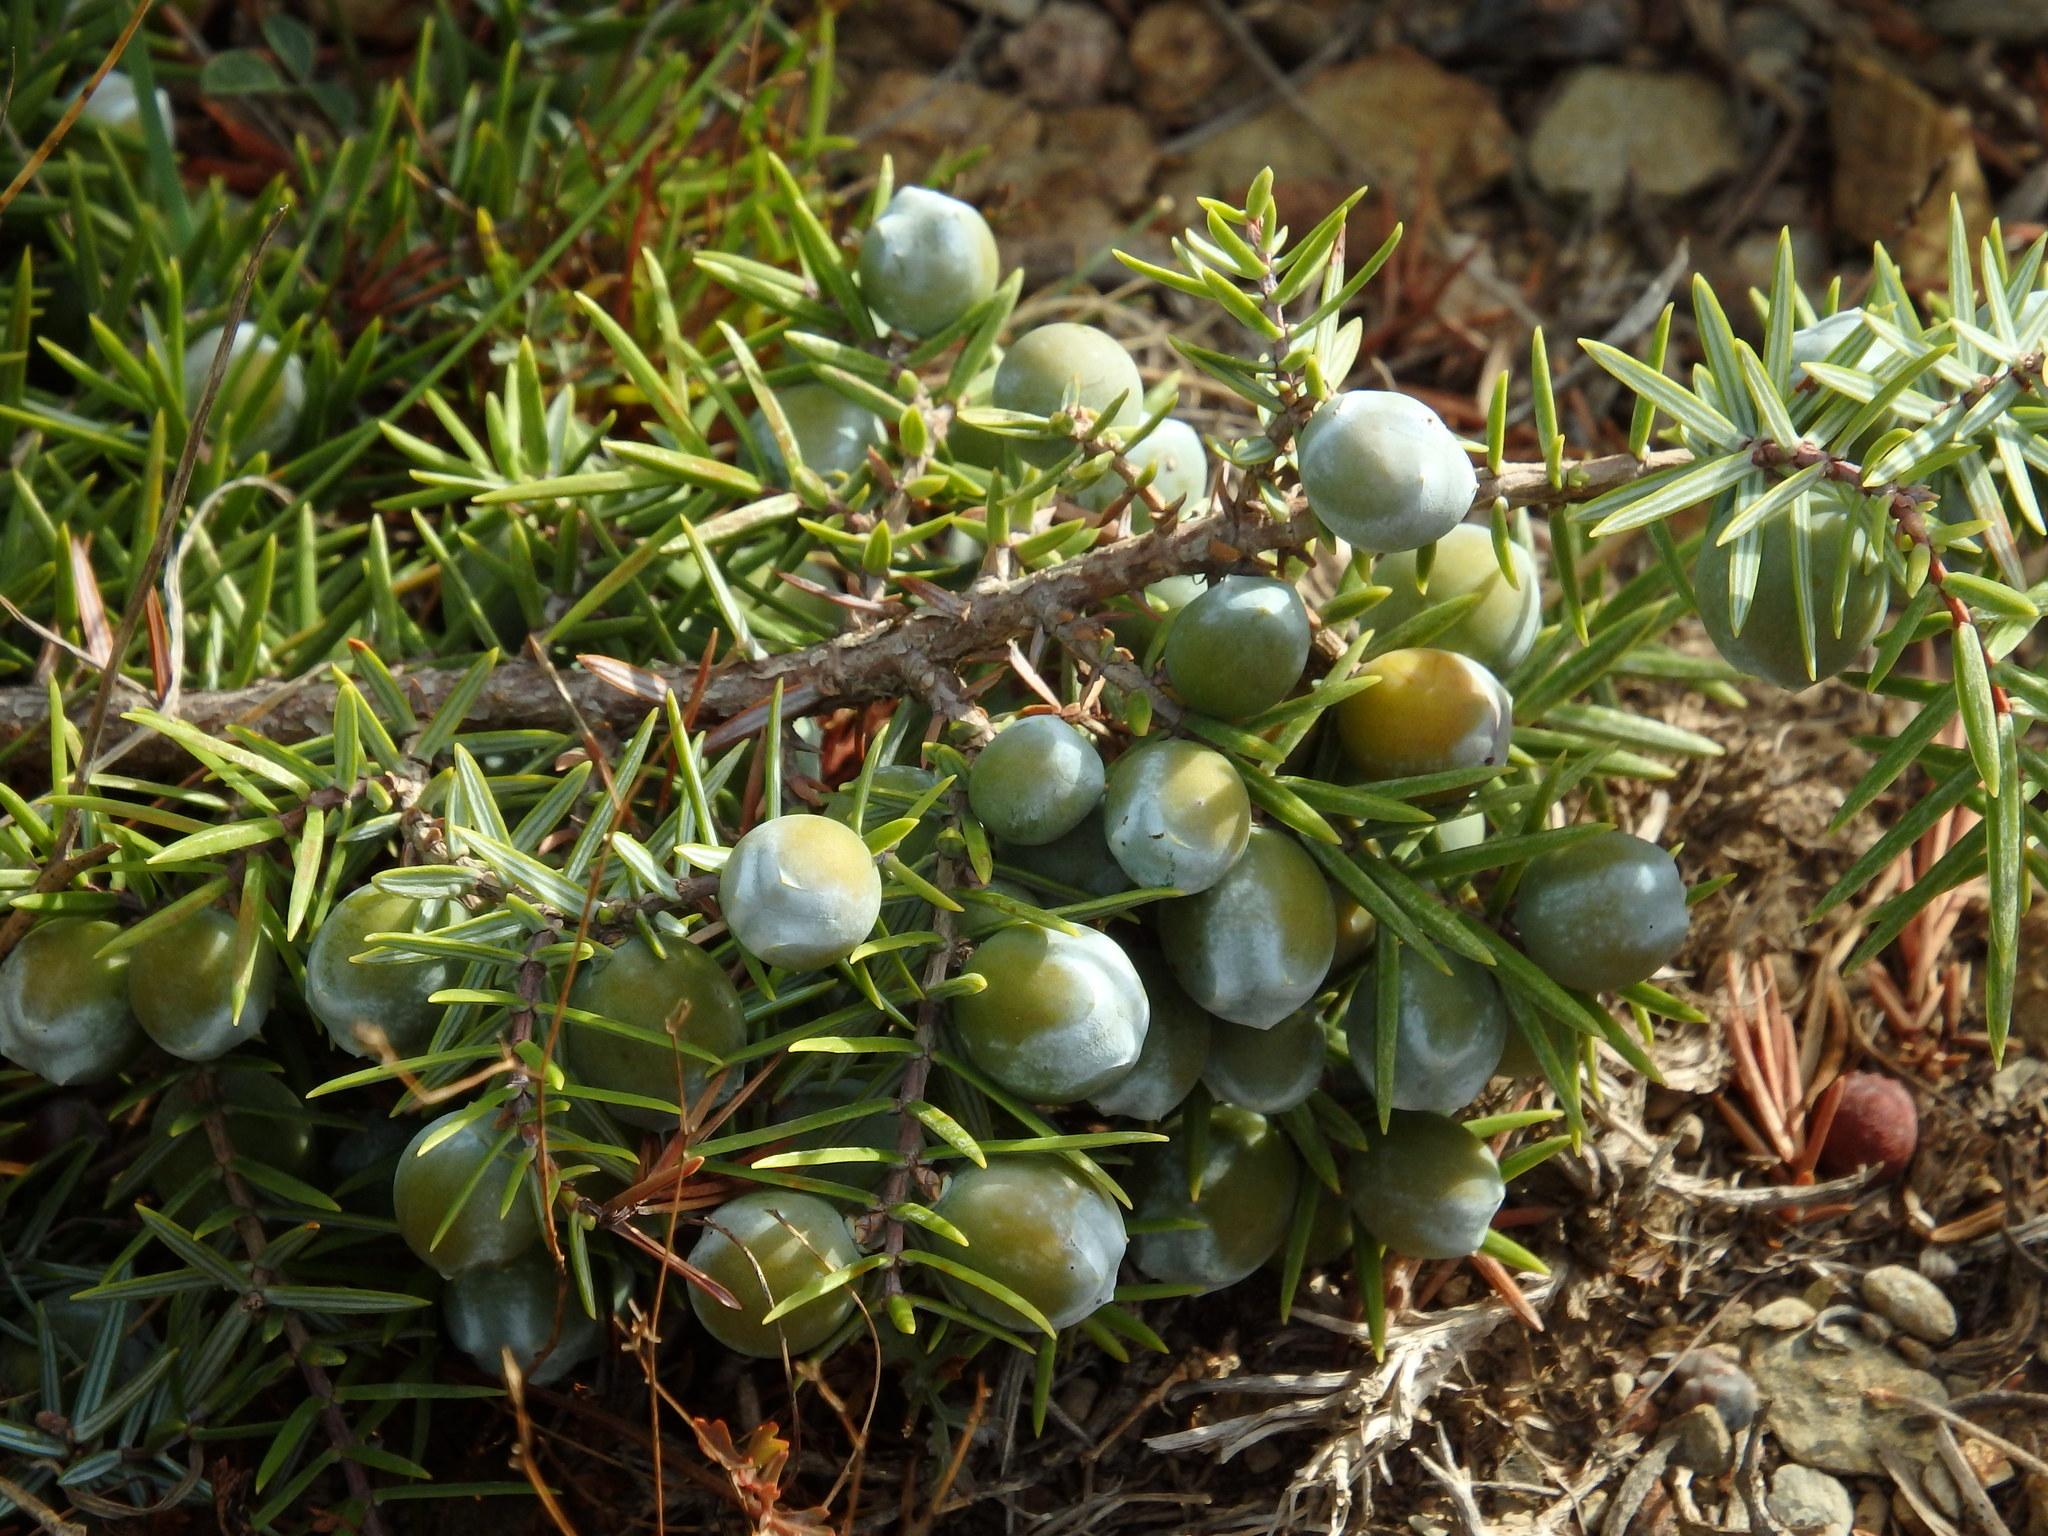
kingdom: Plantae
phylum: Tracheophyta
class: Pinopsida
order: Pinales
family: Cupressaceae
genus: Juniperus
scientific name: Juniperus oxycedrus
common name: Prickly juniper
